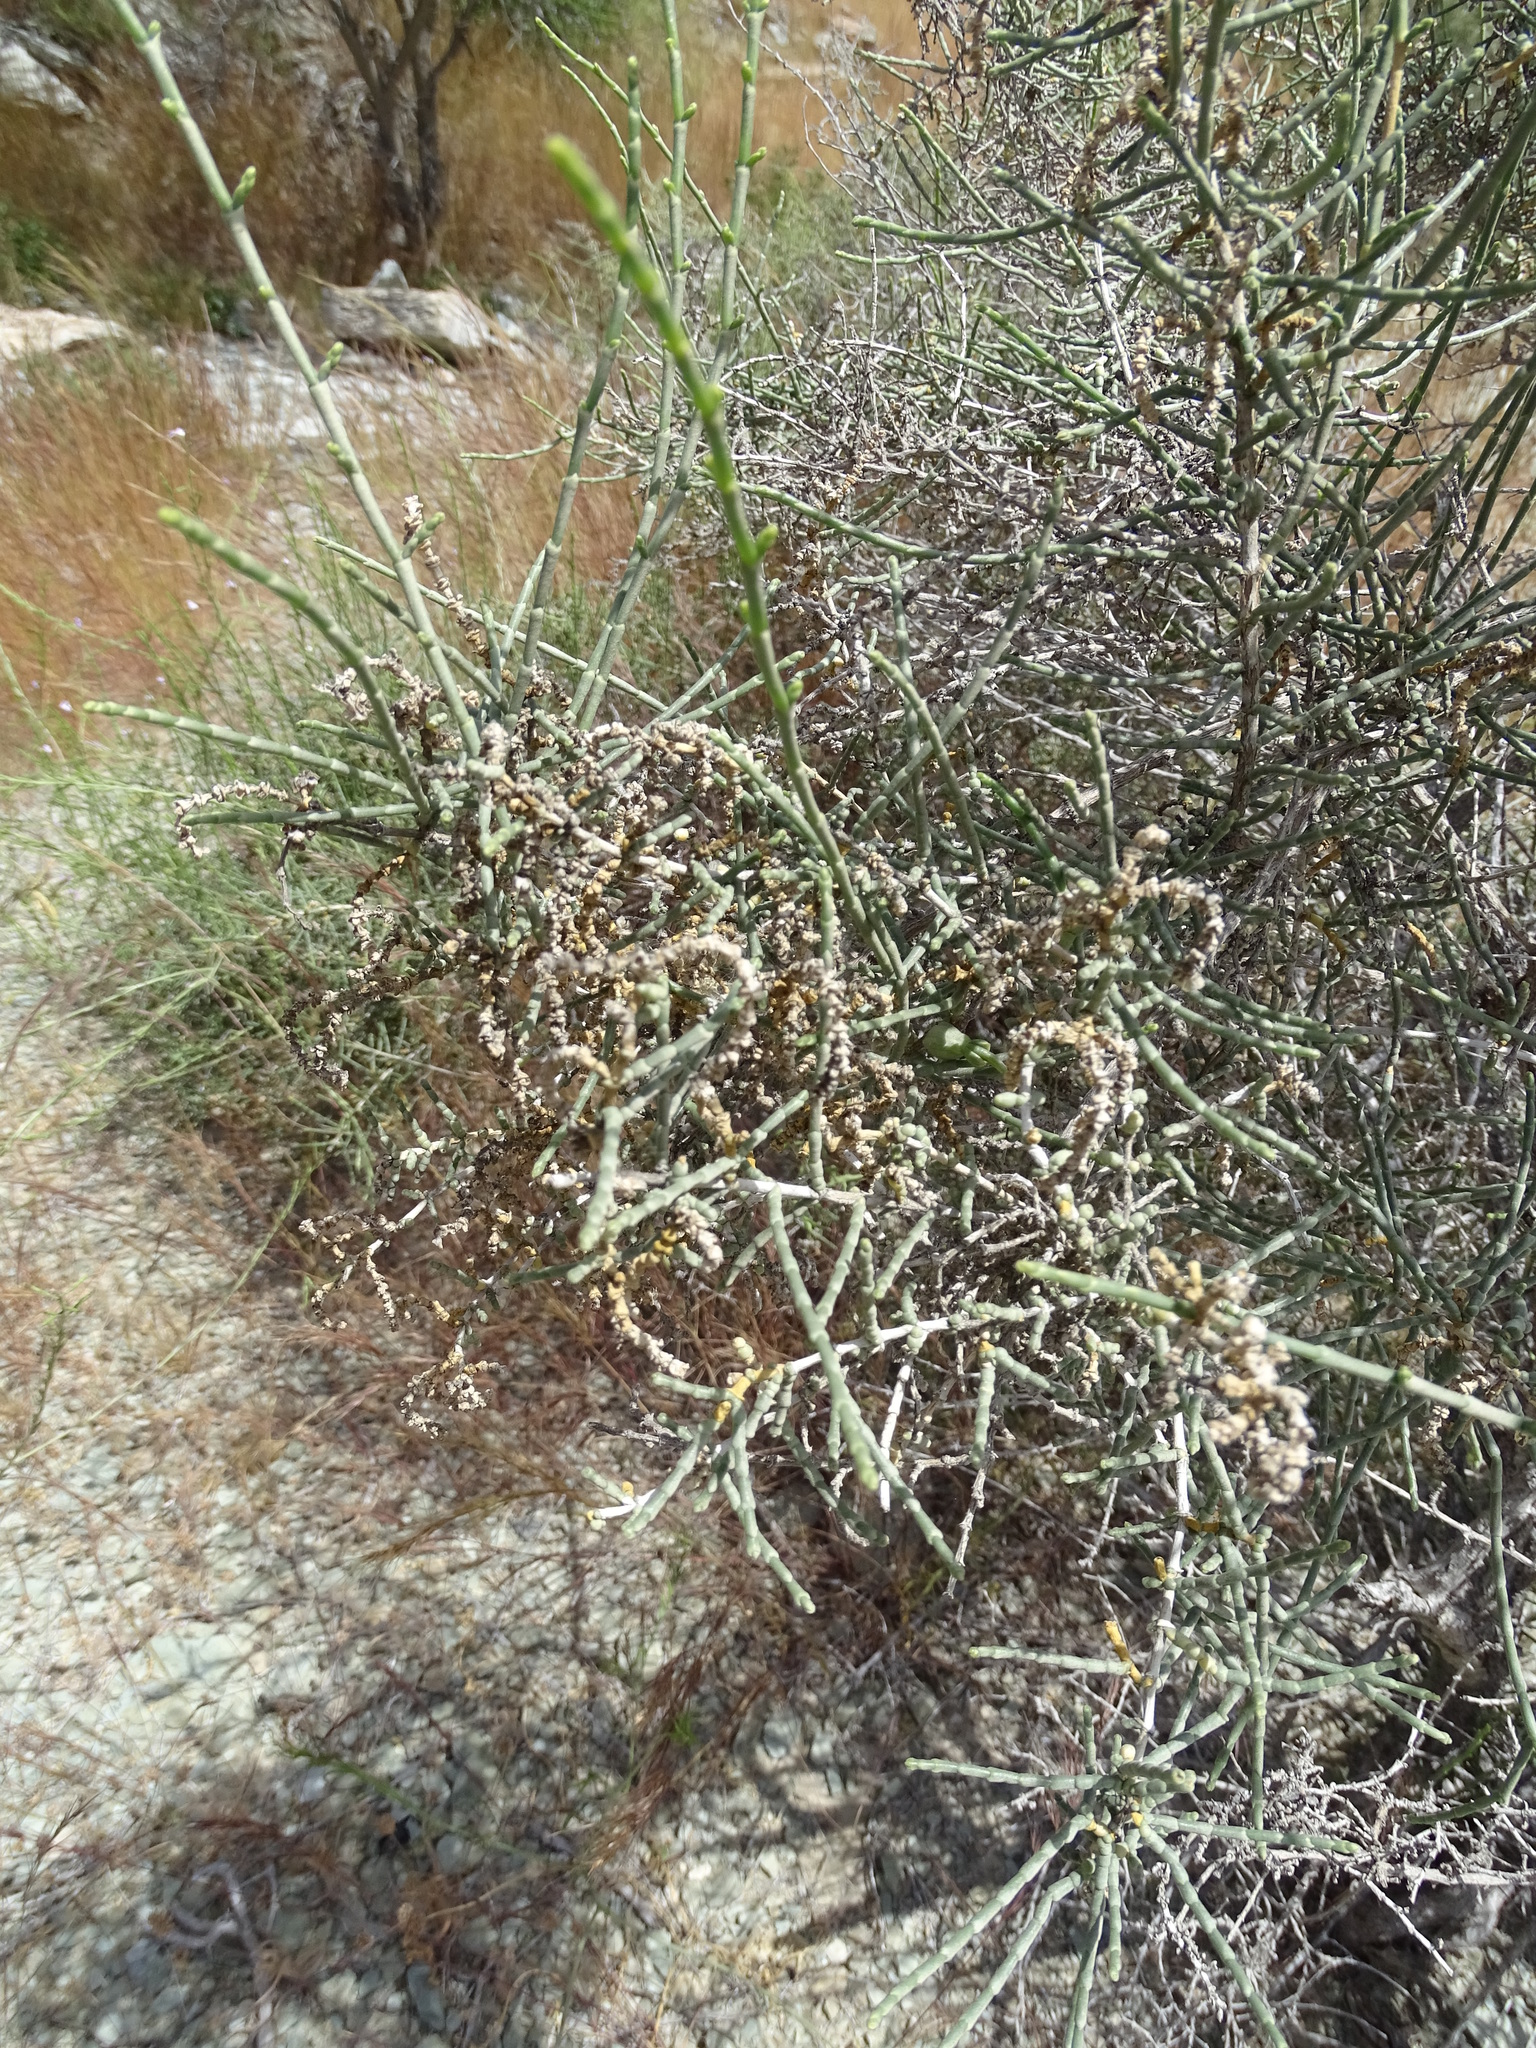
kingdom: Plantae
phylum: Tracheophyta
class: Magnoliopsida
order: Caryophyllales
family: Amaranthaceae
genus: Haloxylon
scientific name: Haloxylon salicornicum
